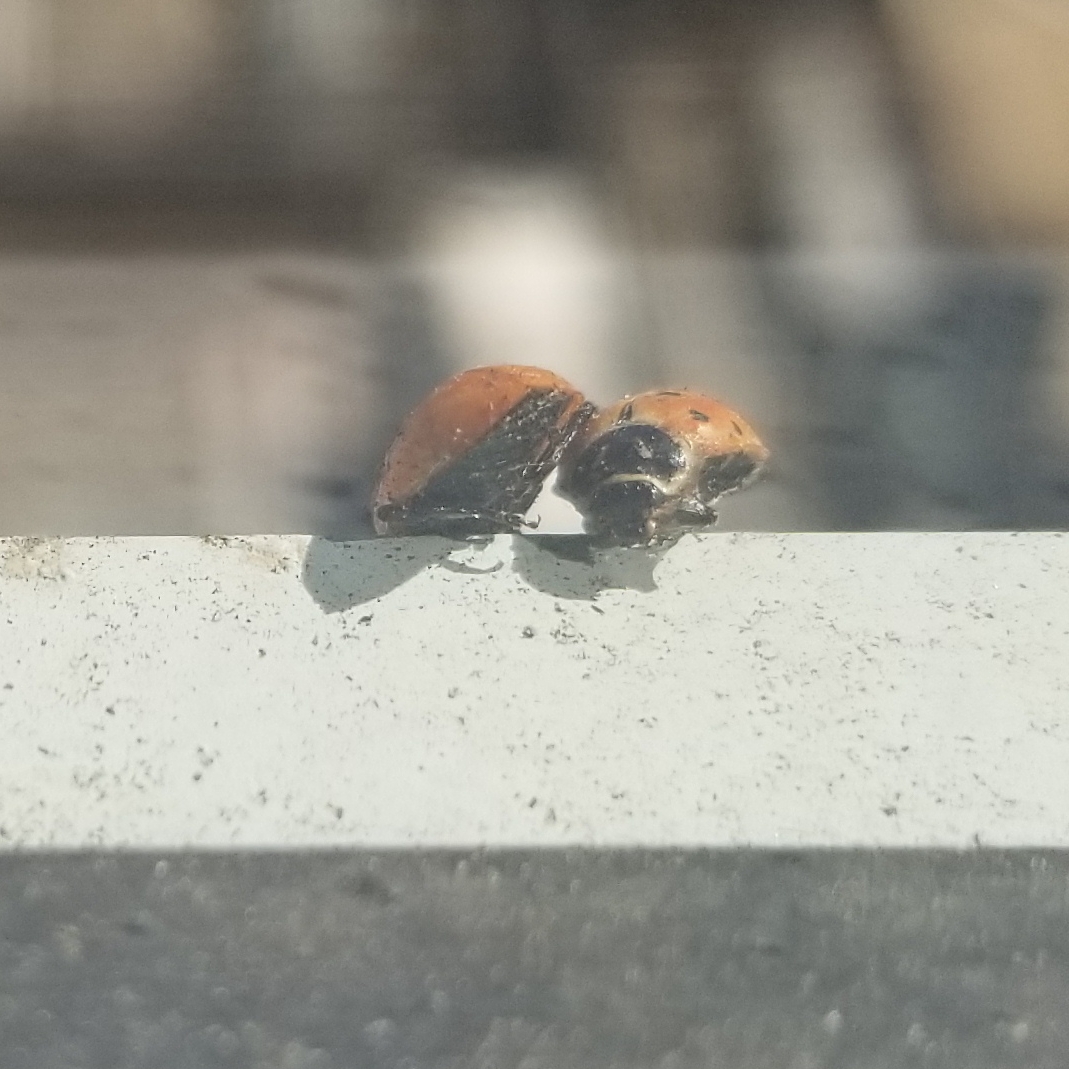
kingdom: Animalia
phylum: Arthropoda
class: Insecta
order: Coleoptera
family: Coccinellidae
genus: Hippodamia
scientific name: Hippodamia convergens
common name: Convergent lady beetle
